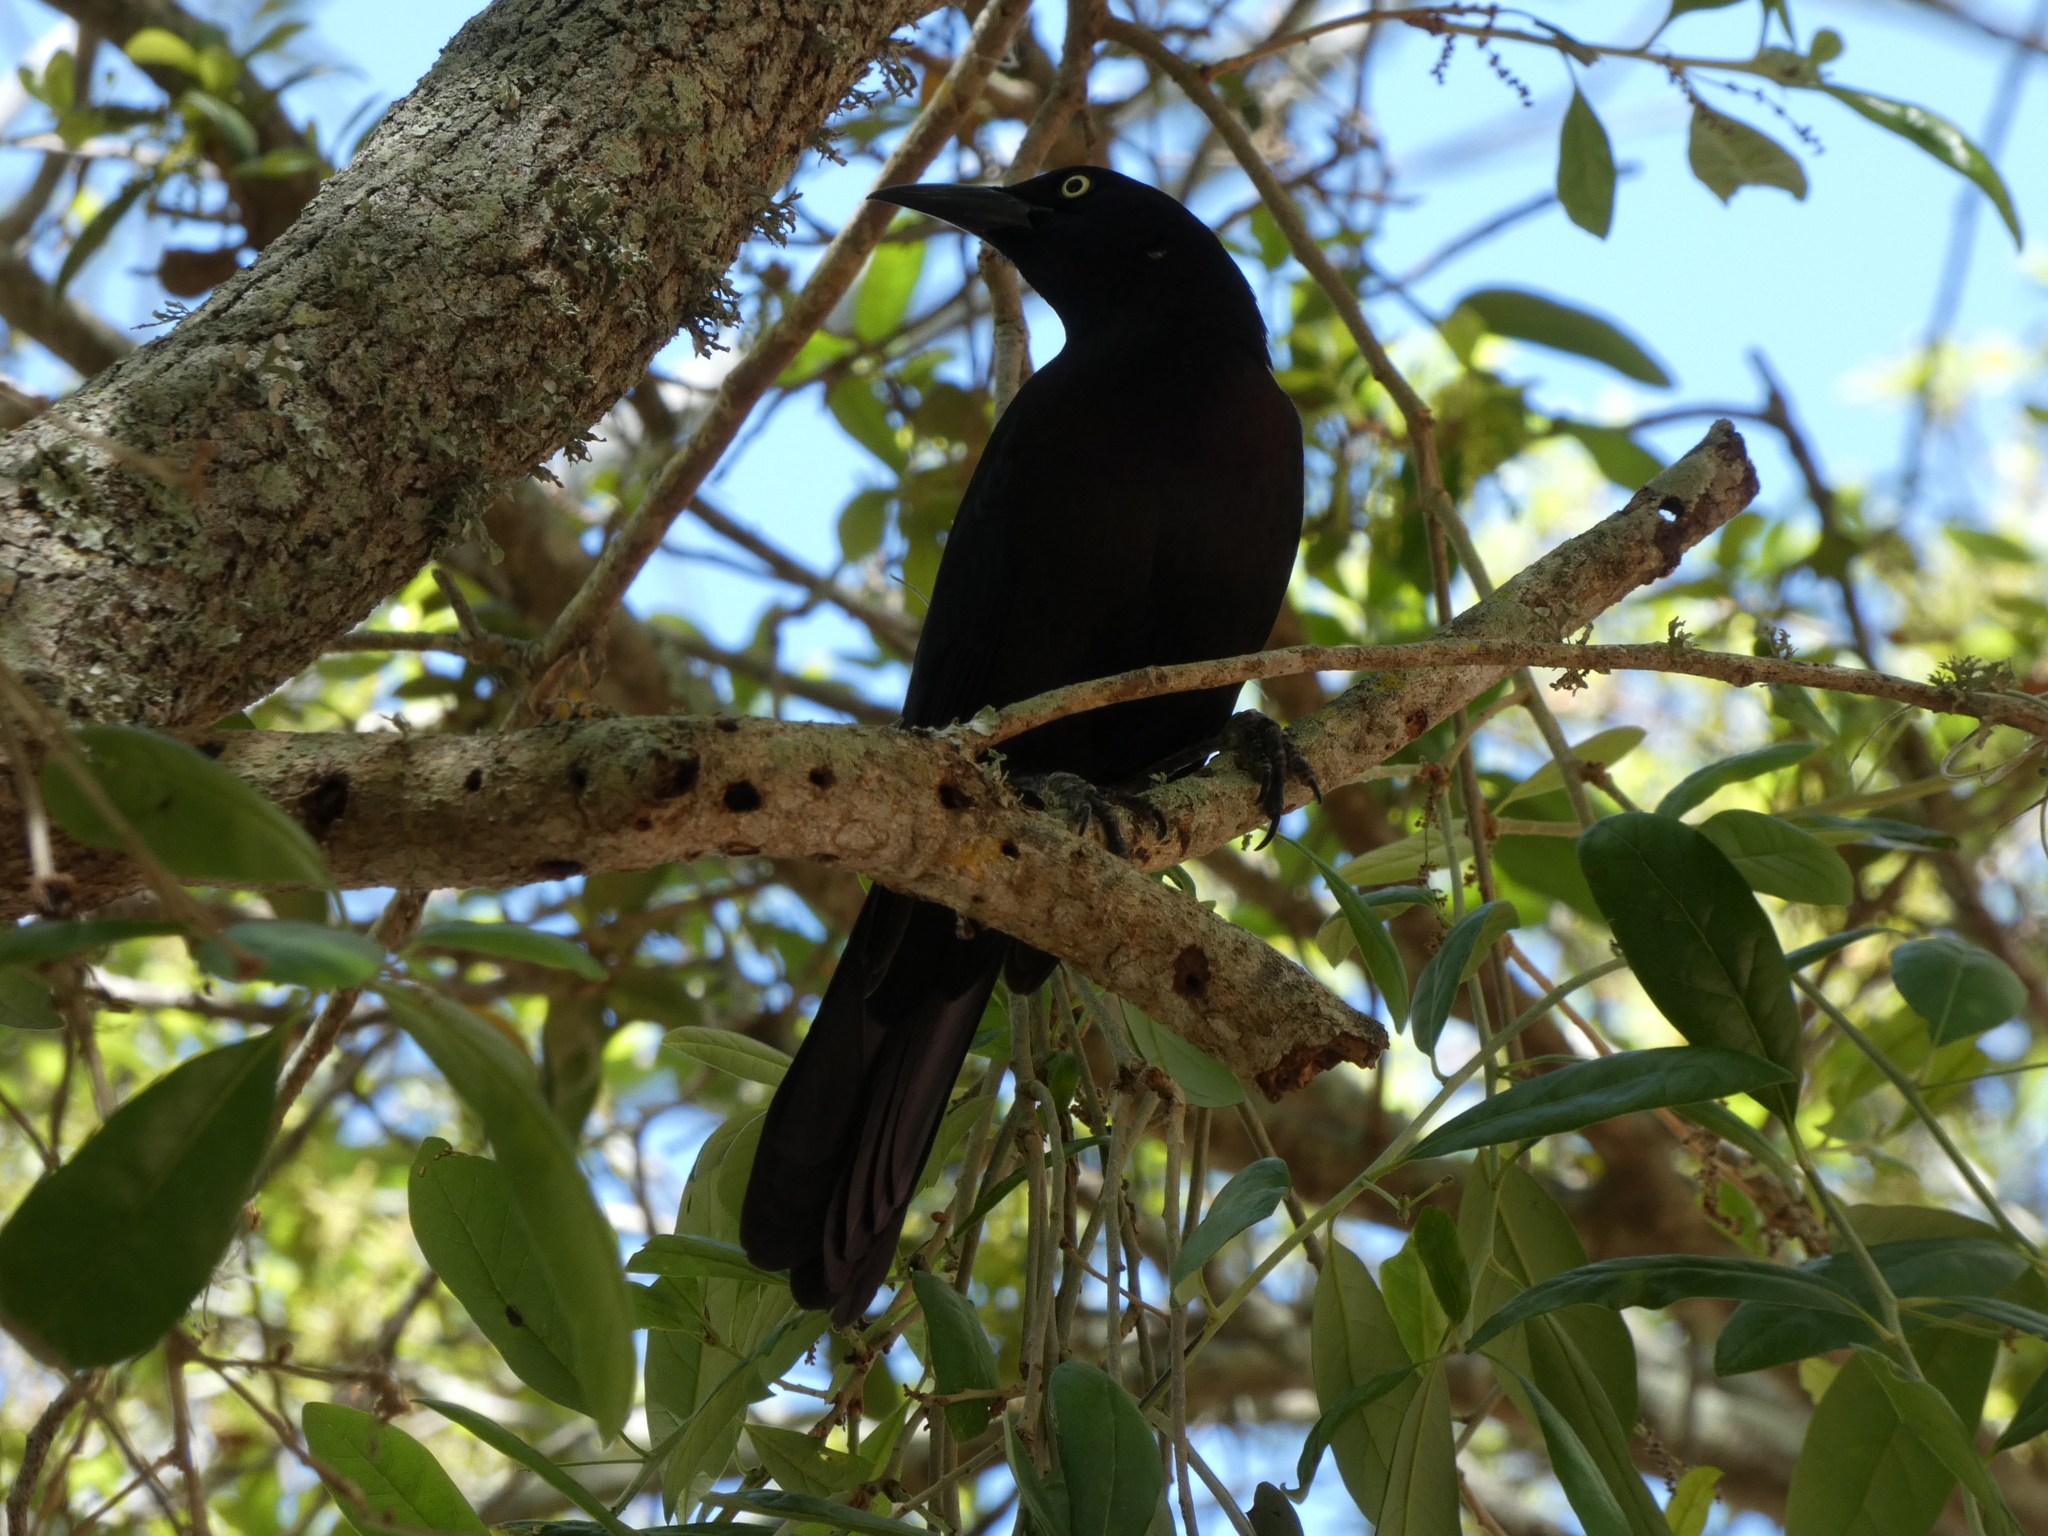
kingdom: Animalia
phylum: Chordata
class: Aves
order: Passeriformes
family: Icteridae
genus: Quiscalus
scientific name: Quiscalus quiscula
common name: Common grackle
